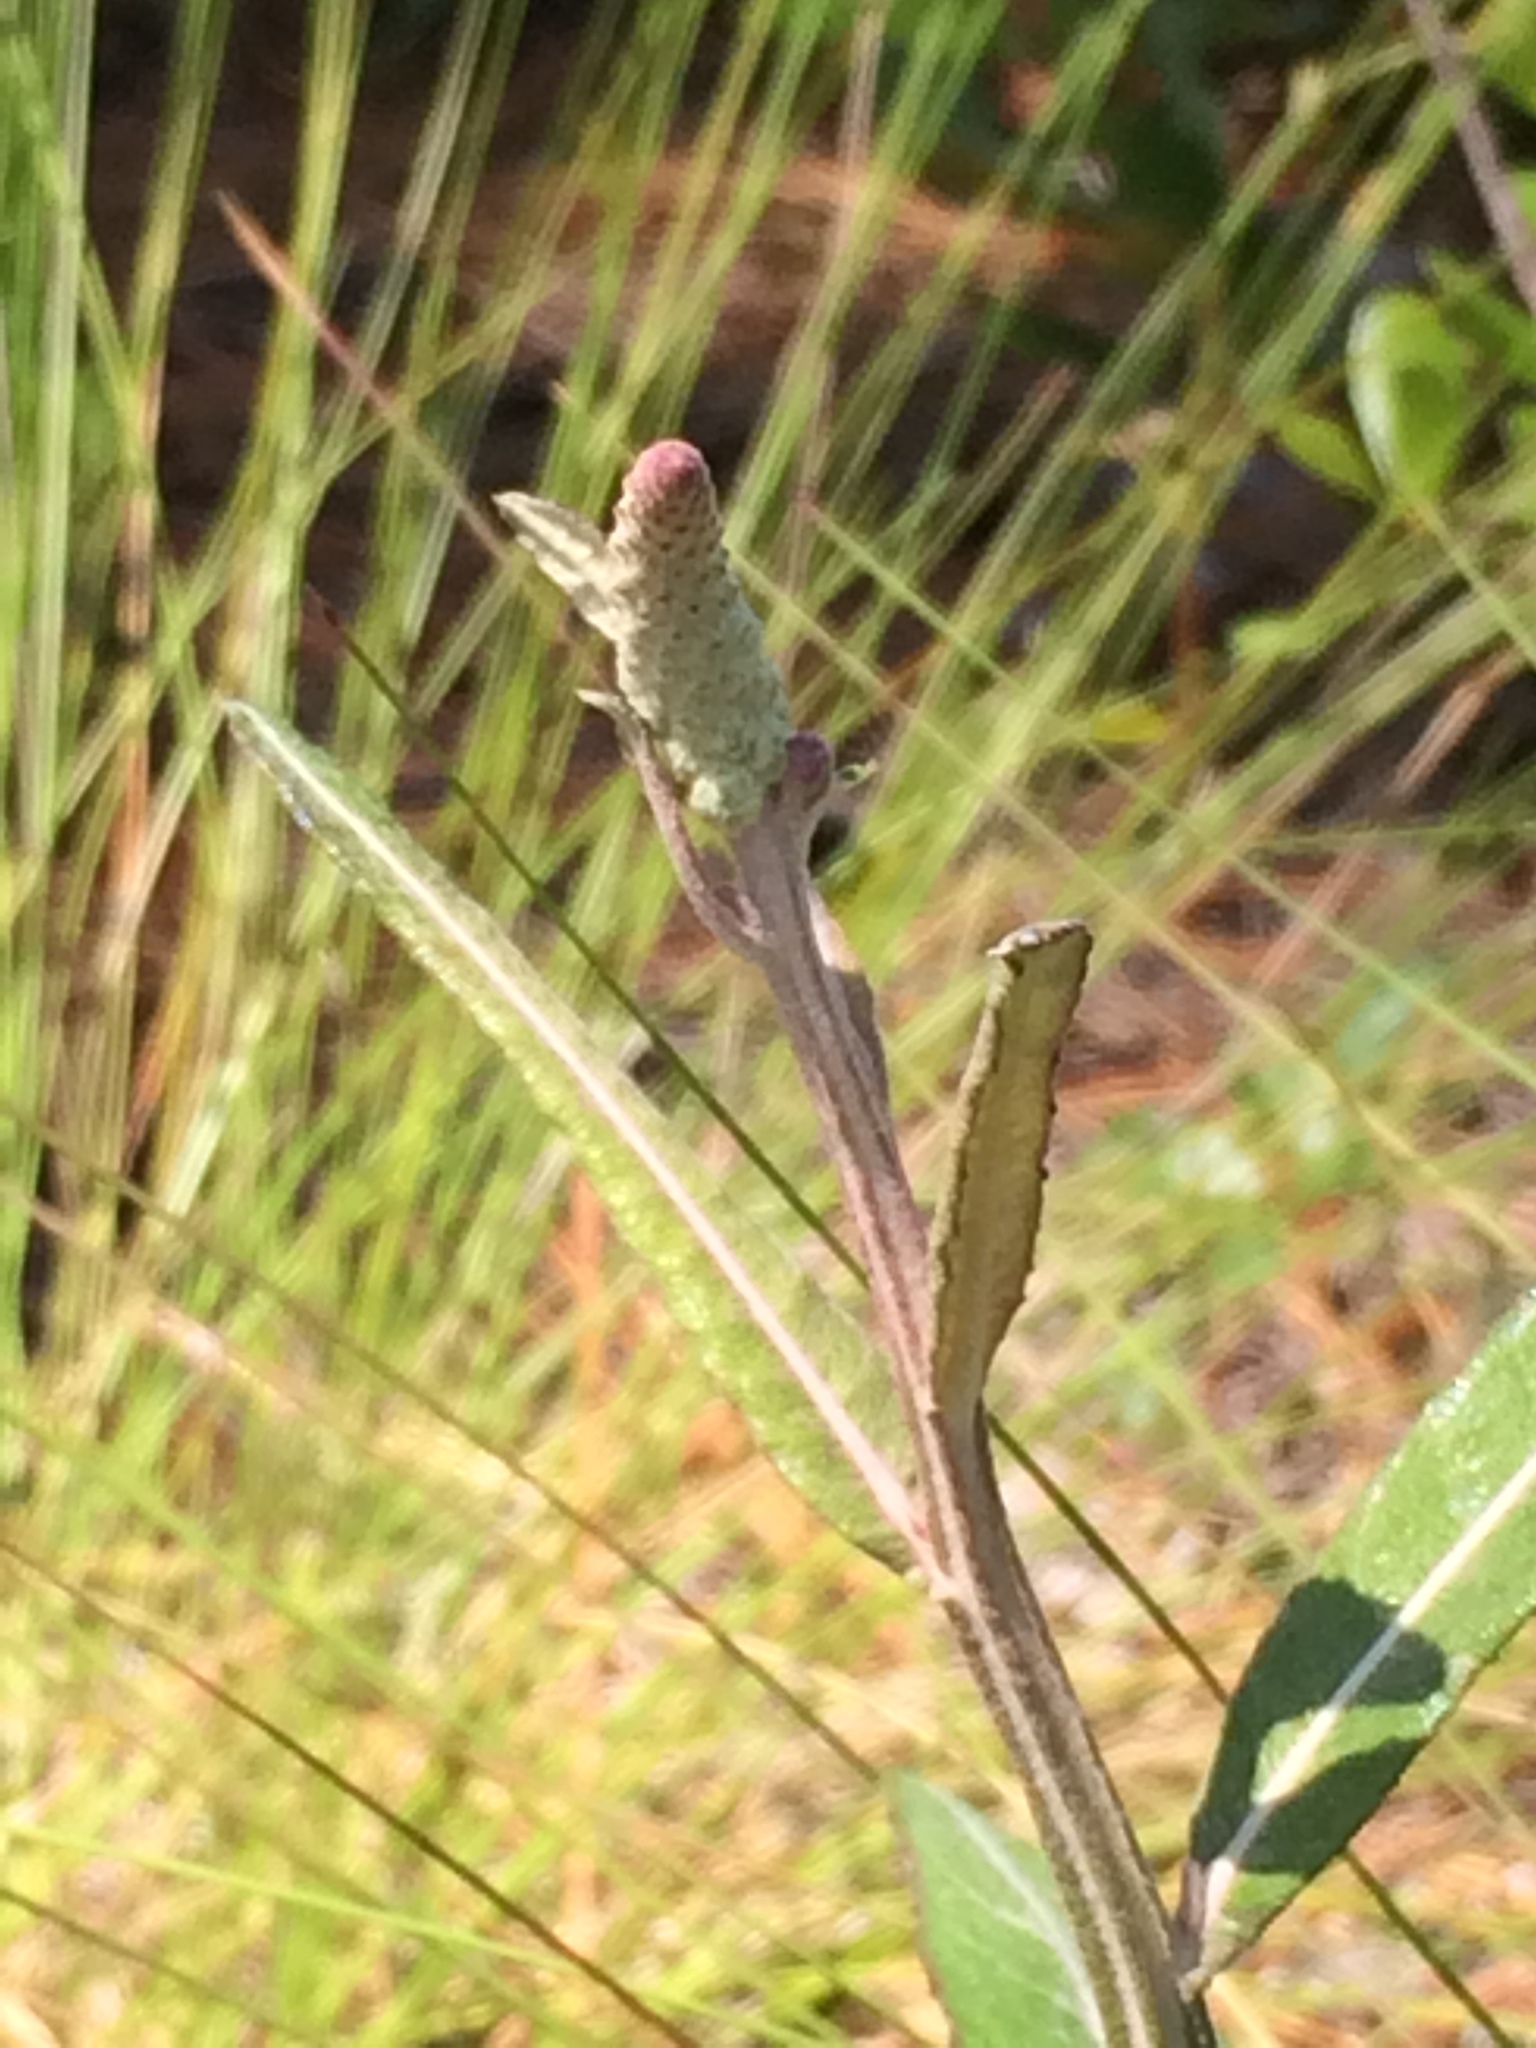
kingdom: Plantae
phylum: Tracheophyta
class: Magnoliopsida
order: Asterales
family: Asteraceae
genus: Pterocaulon
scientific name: Pterocaulon pycnostachyum
